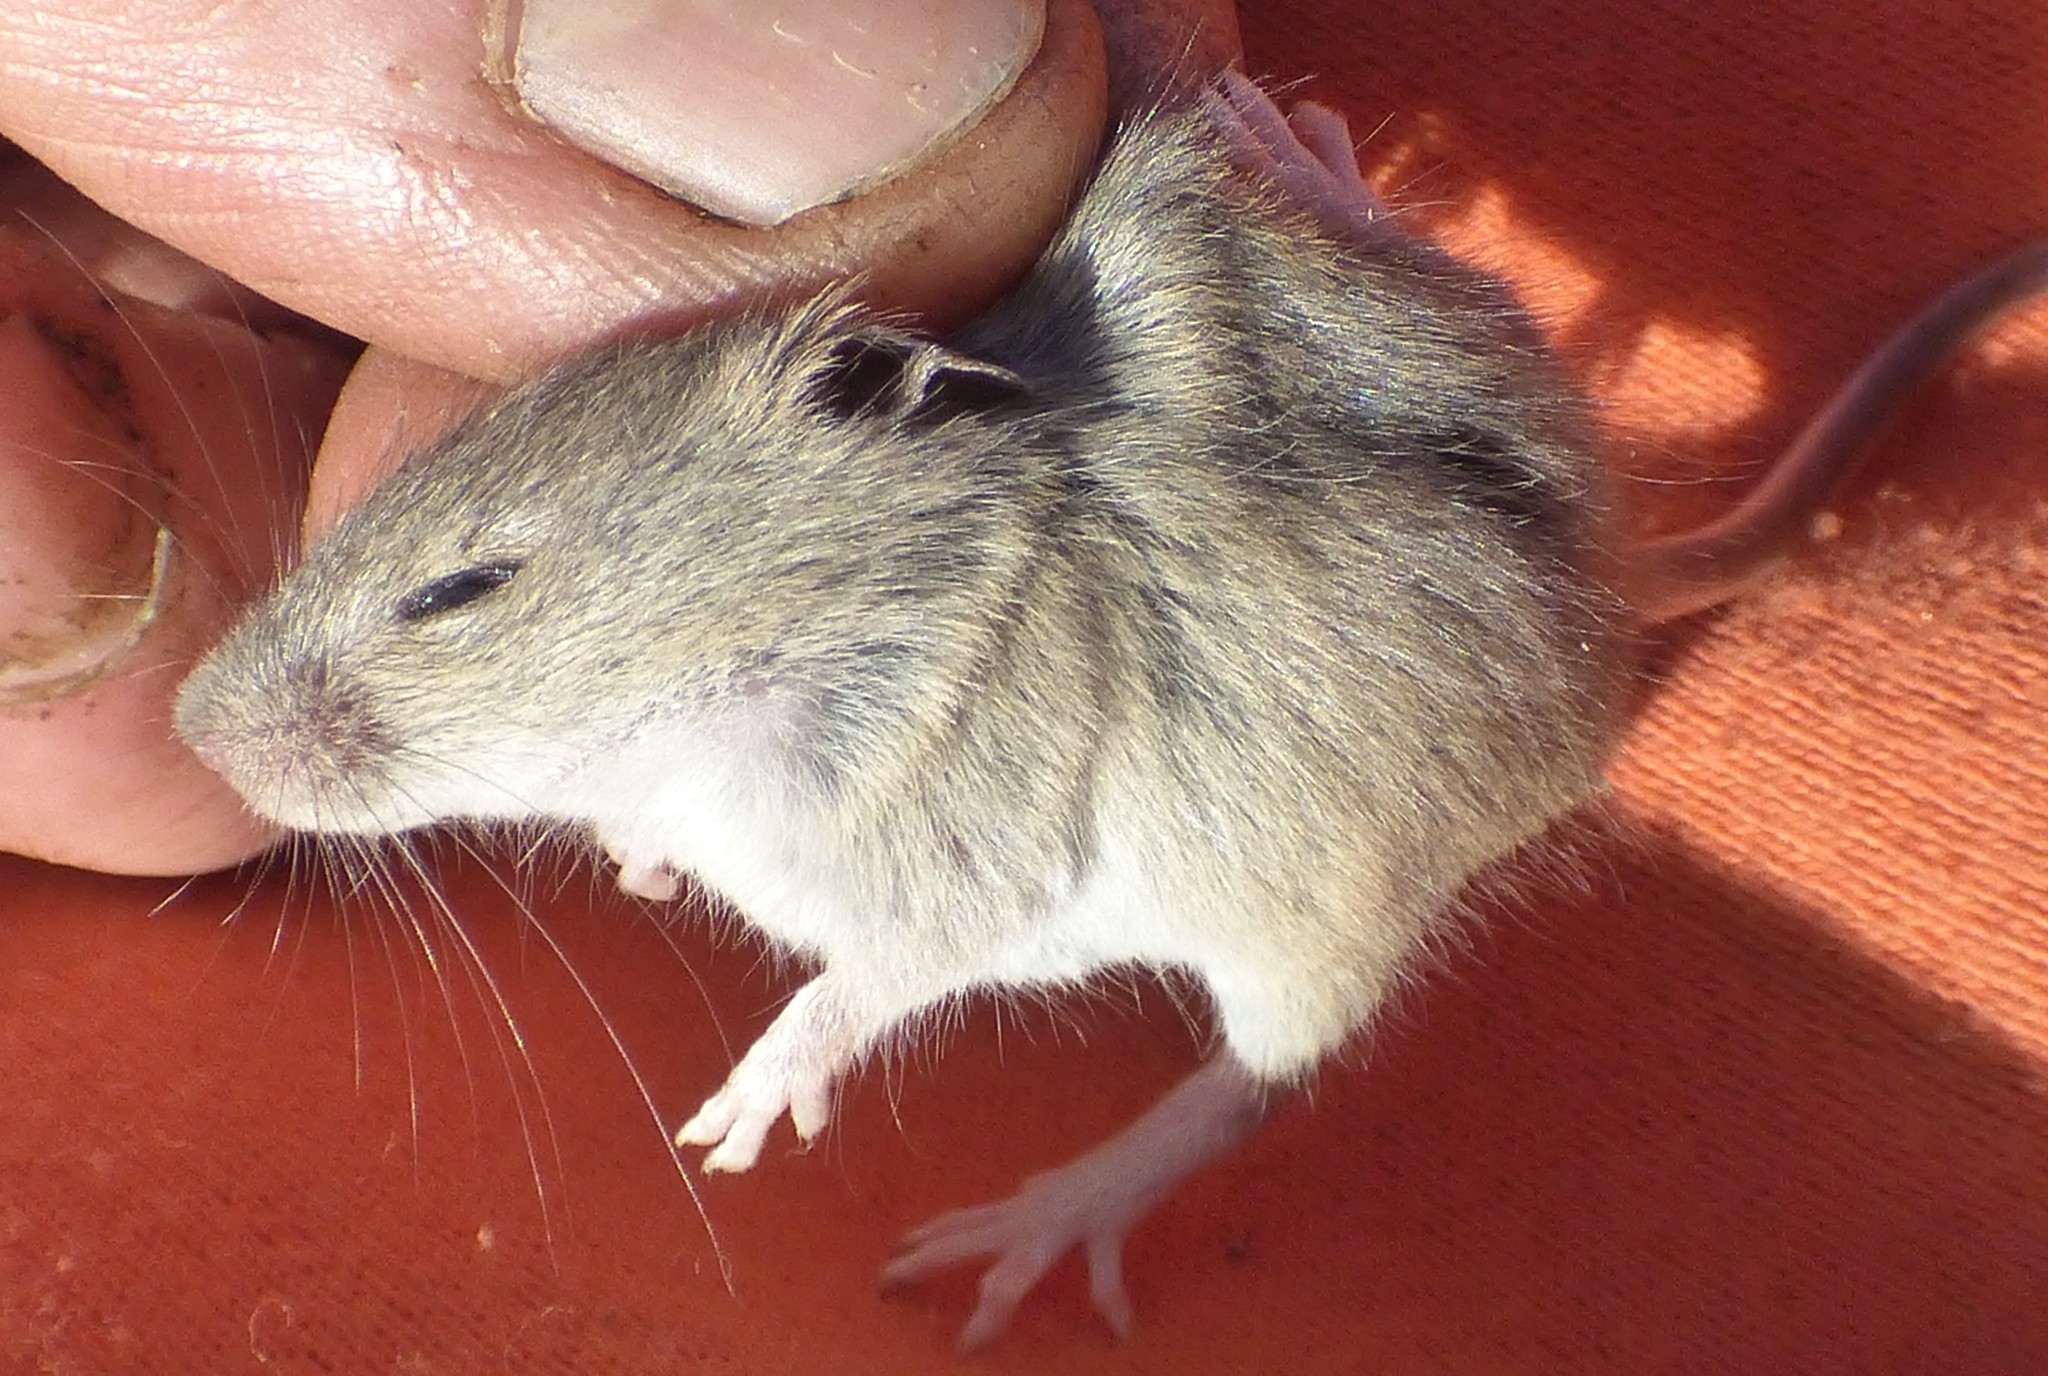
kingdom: Animalia
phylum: Chordata
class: Mammalia
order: Rodentia
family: Cricetidae
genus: Reithrodontomys
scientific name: Reithrodontomys humulis
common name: Eastern harvest mouse
